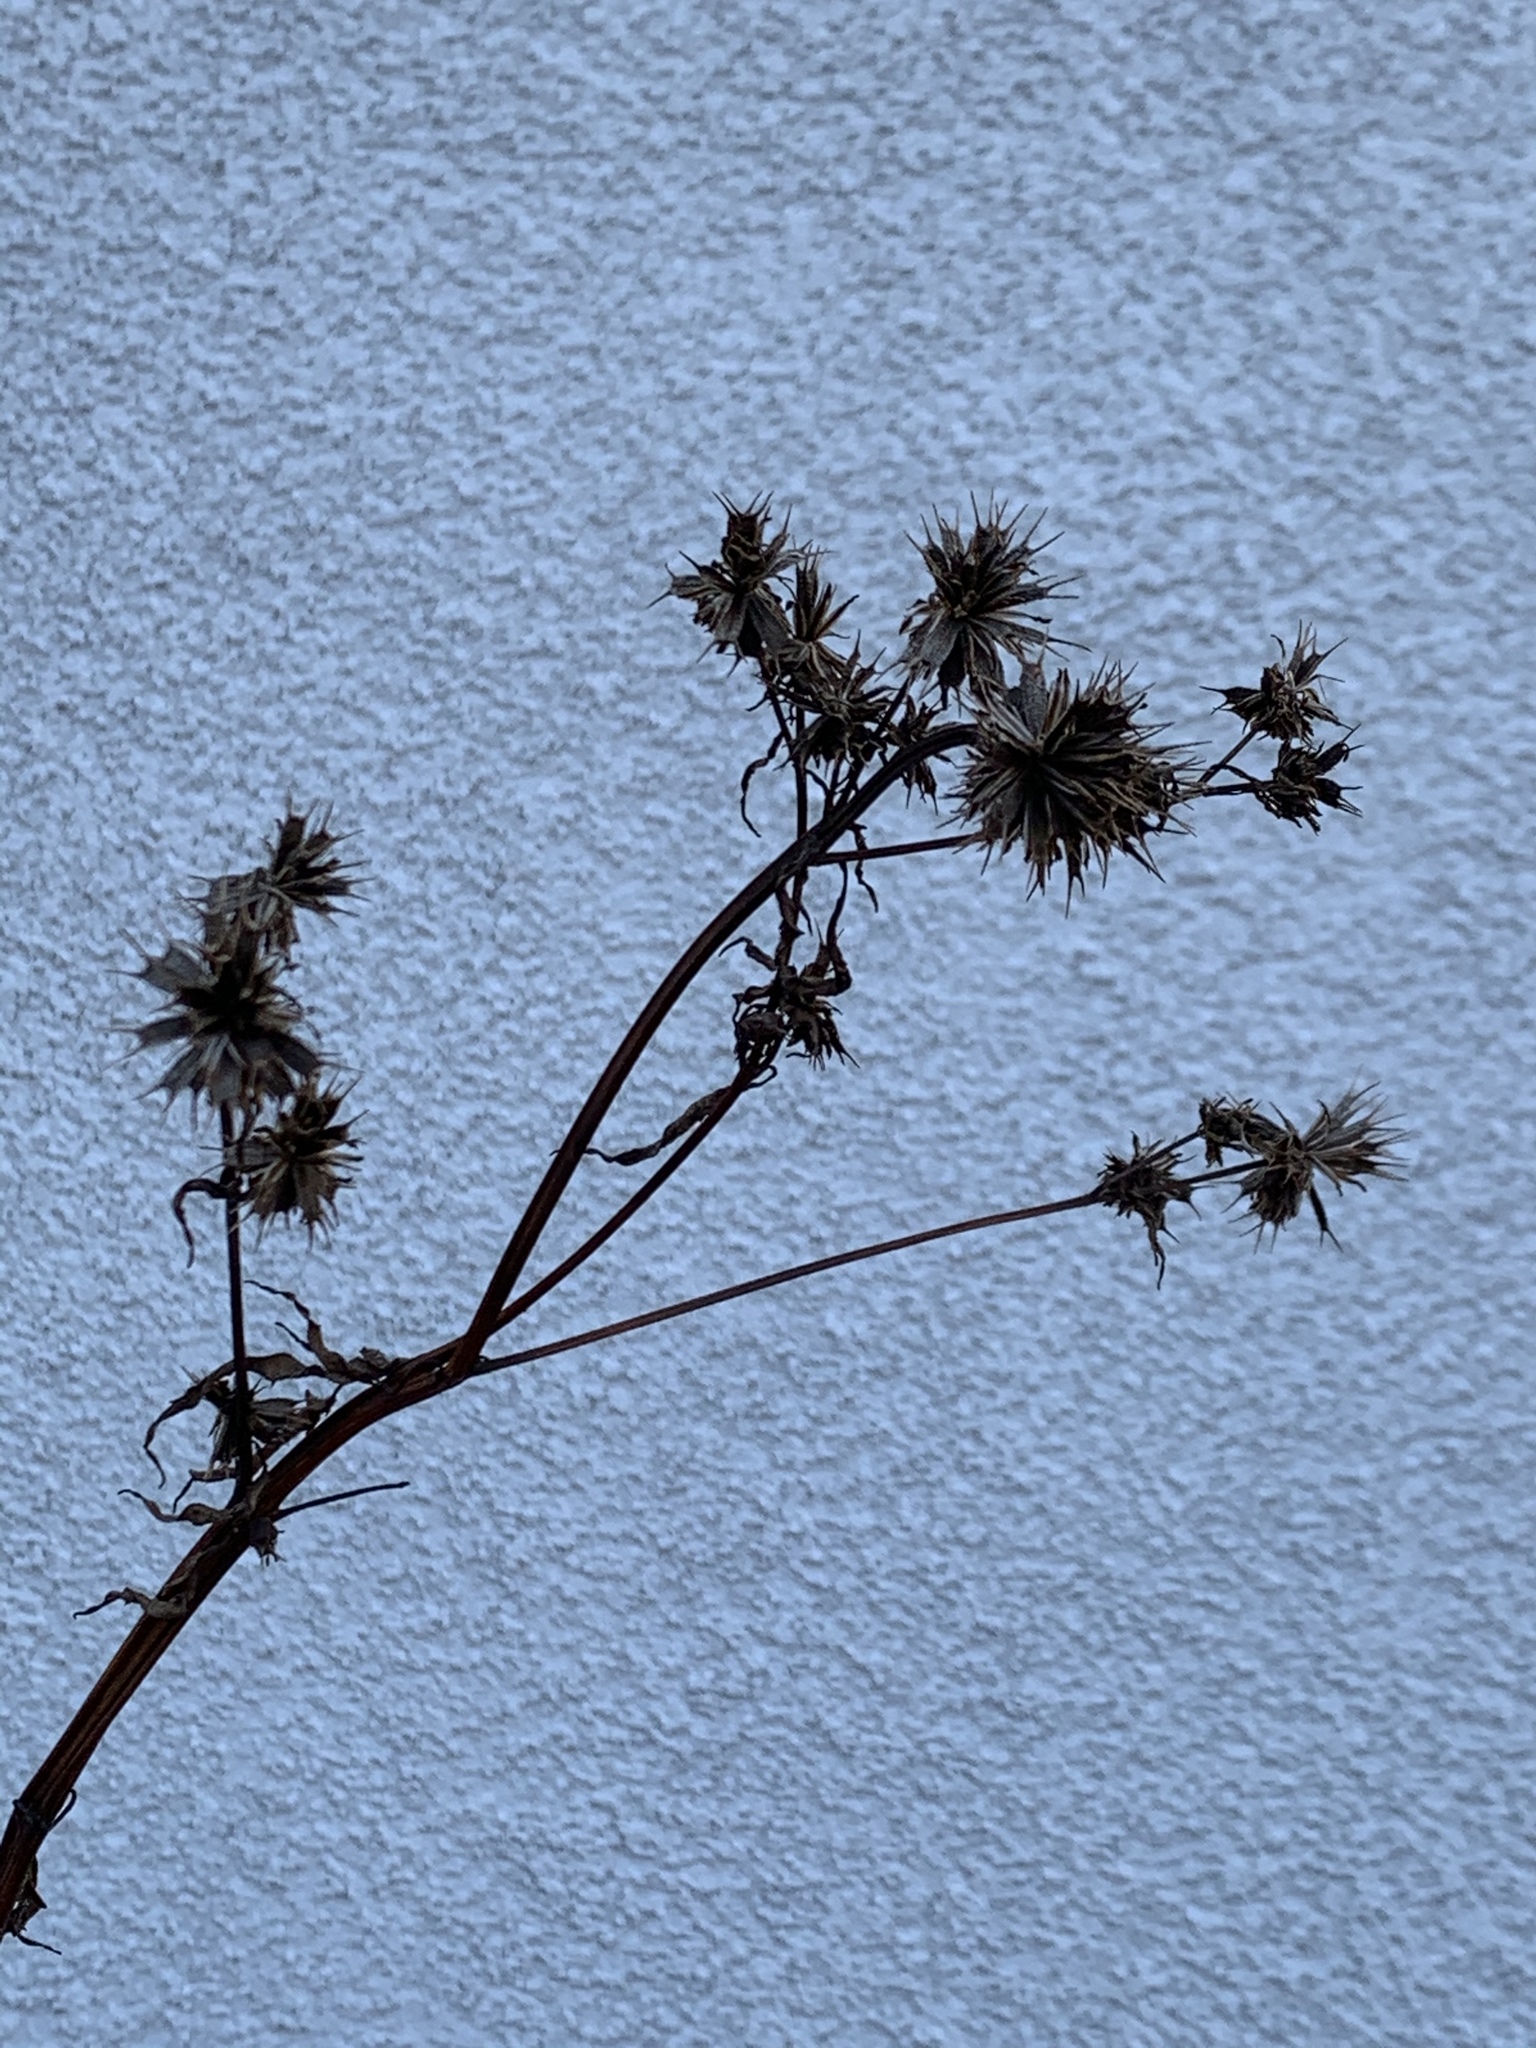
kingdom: Plantae
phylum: Tracheophyta
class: Magnoliopsida
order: Asterales
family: Asteraceae
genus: Bidens
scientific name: Bidens frondosa
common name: Beggarticks
